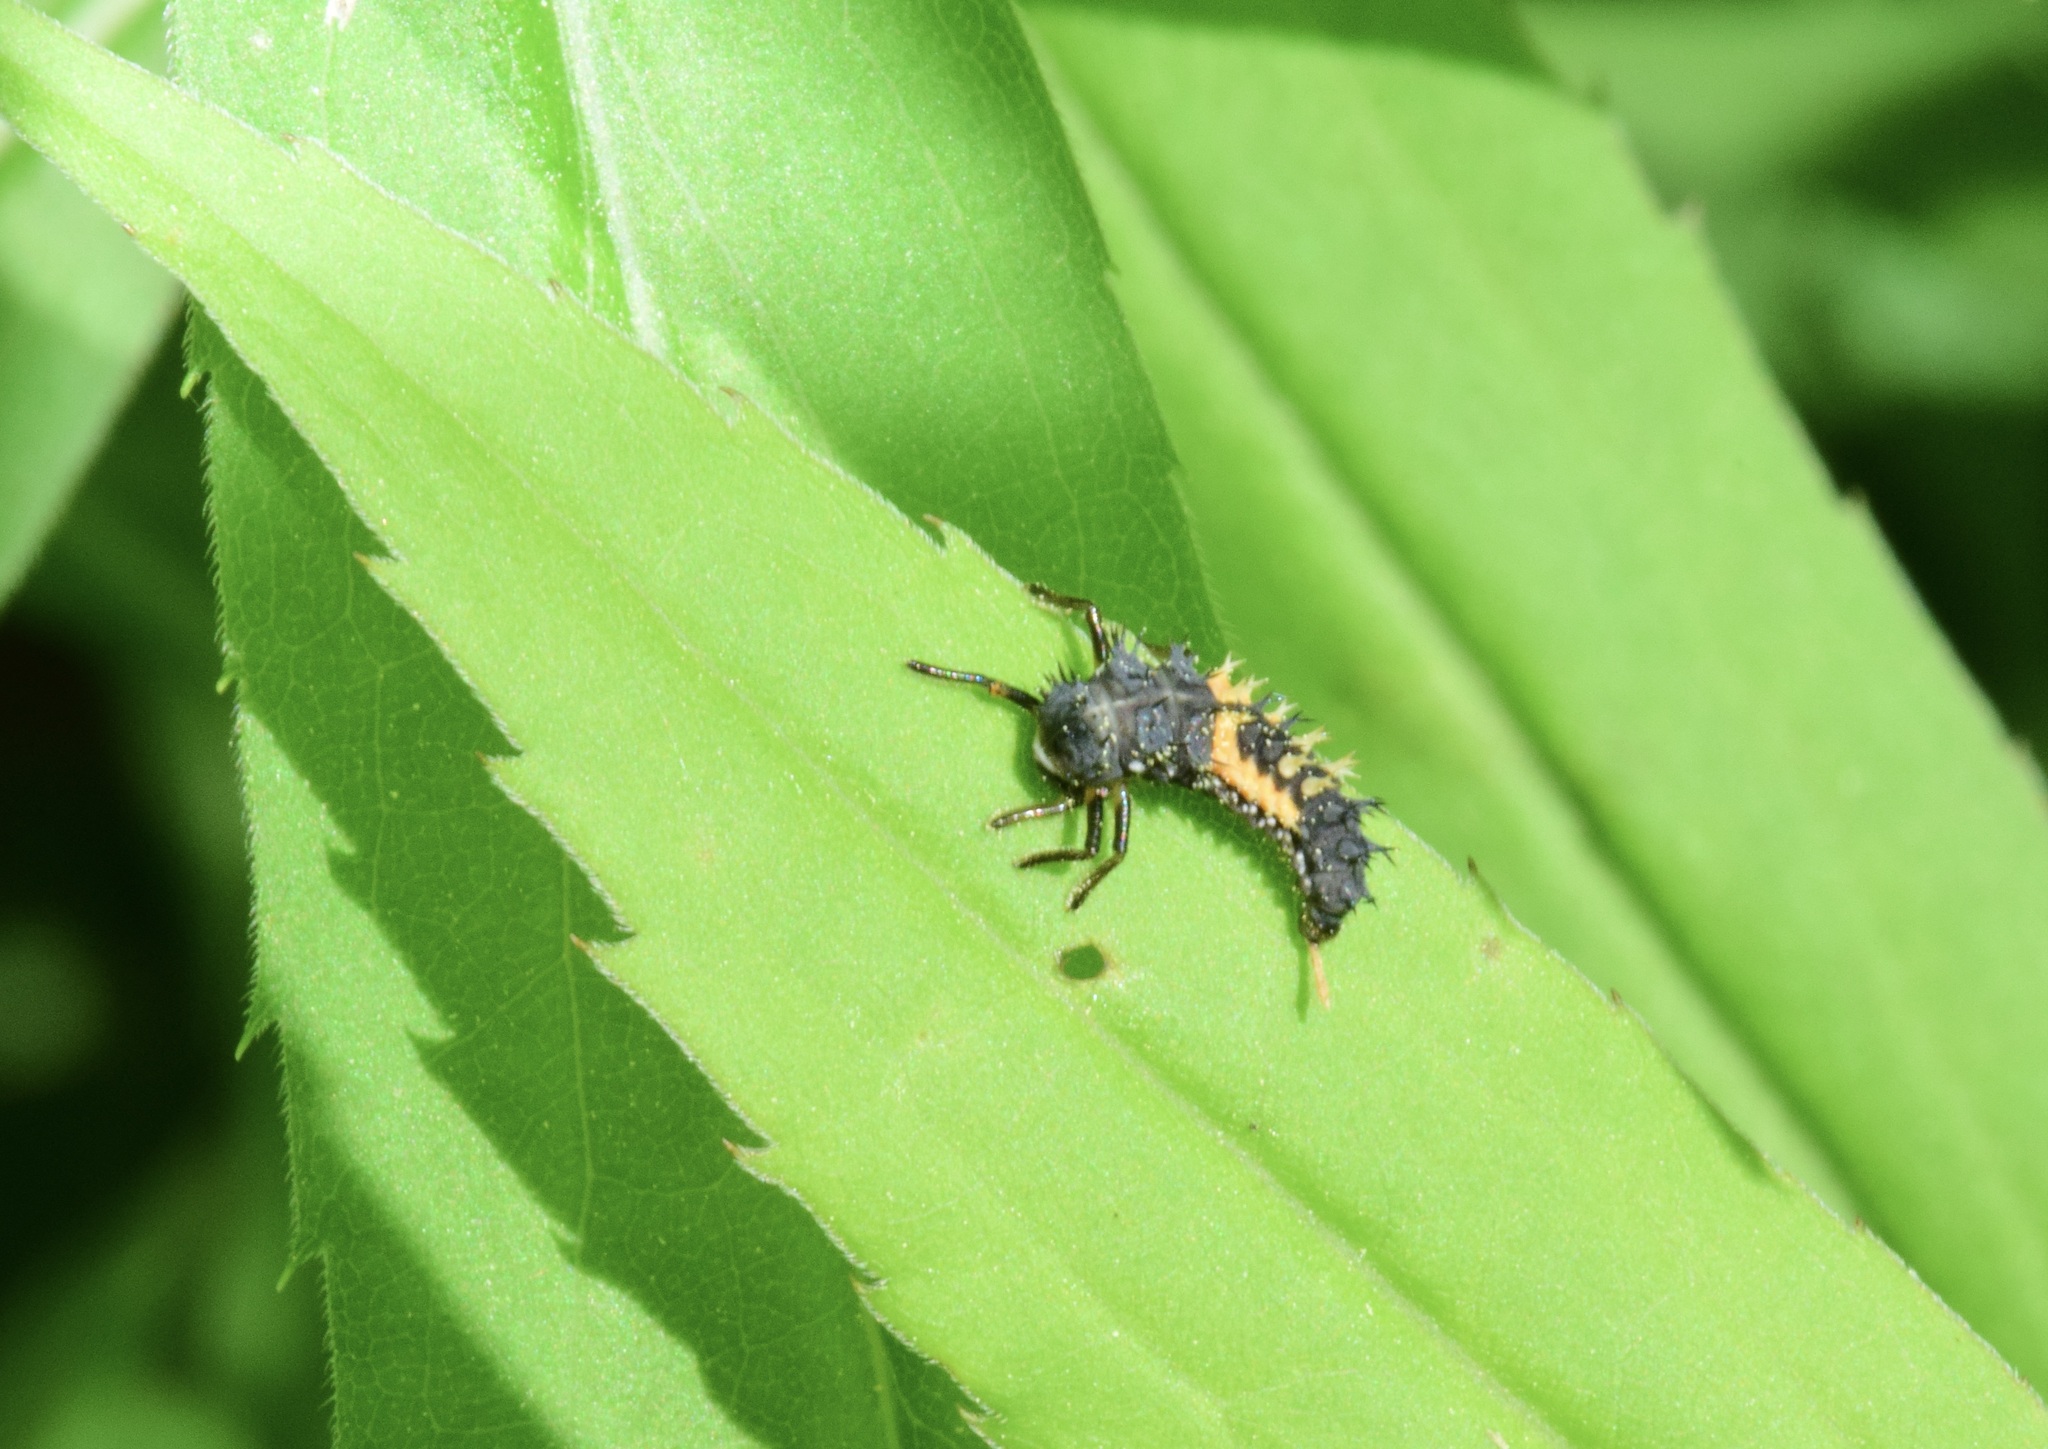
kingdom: Animalia
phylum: Arthropoda
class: Insecta
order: Coleoptera
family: Coccinellidae
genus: Harmonia
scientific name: Harmonia axyridis
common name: Harlequin ladybird
